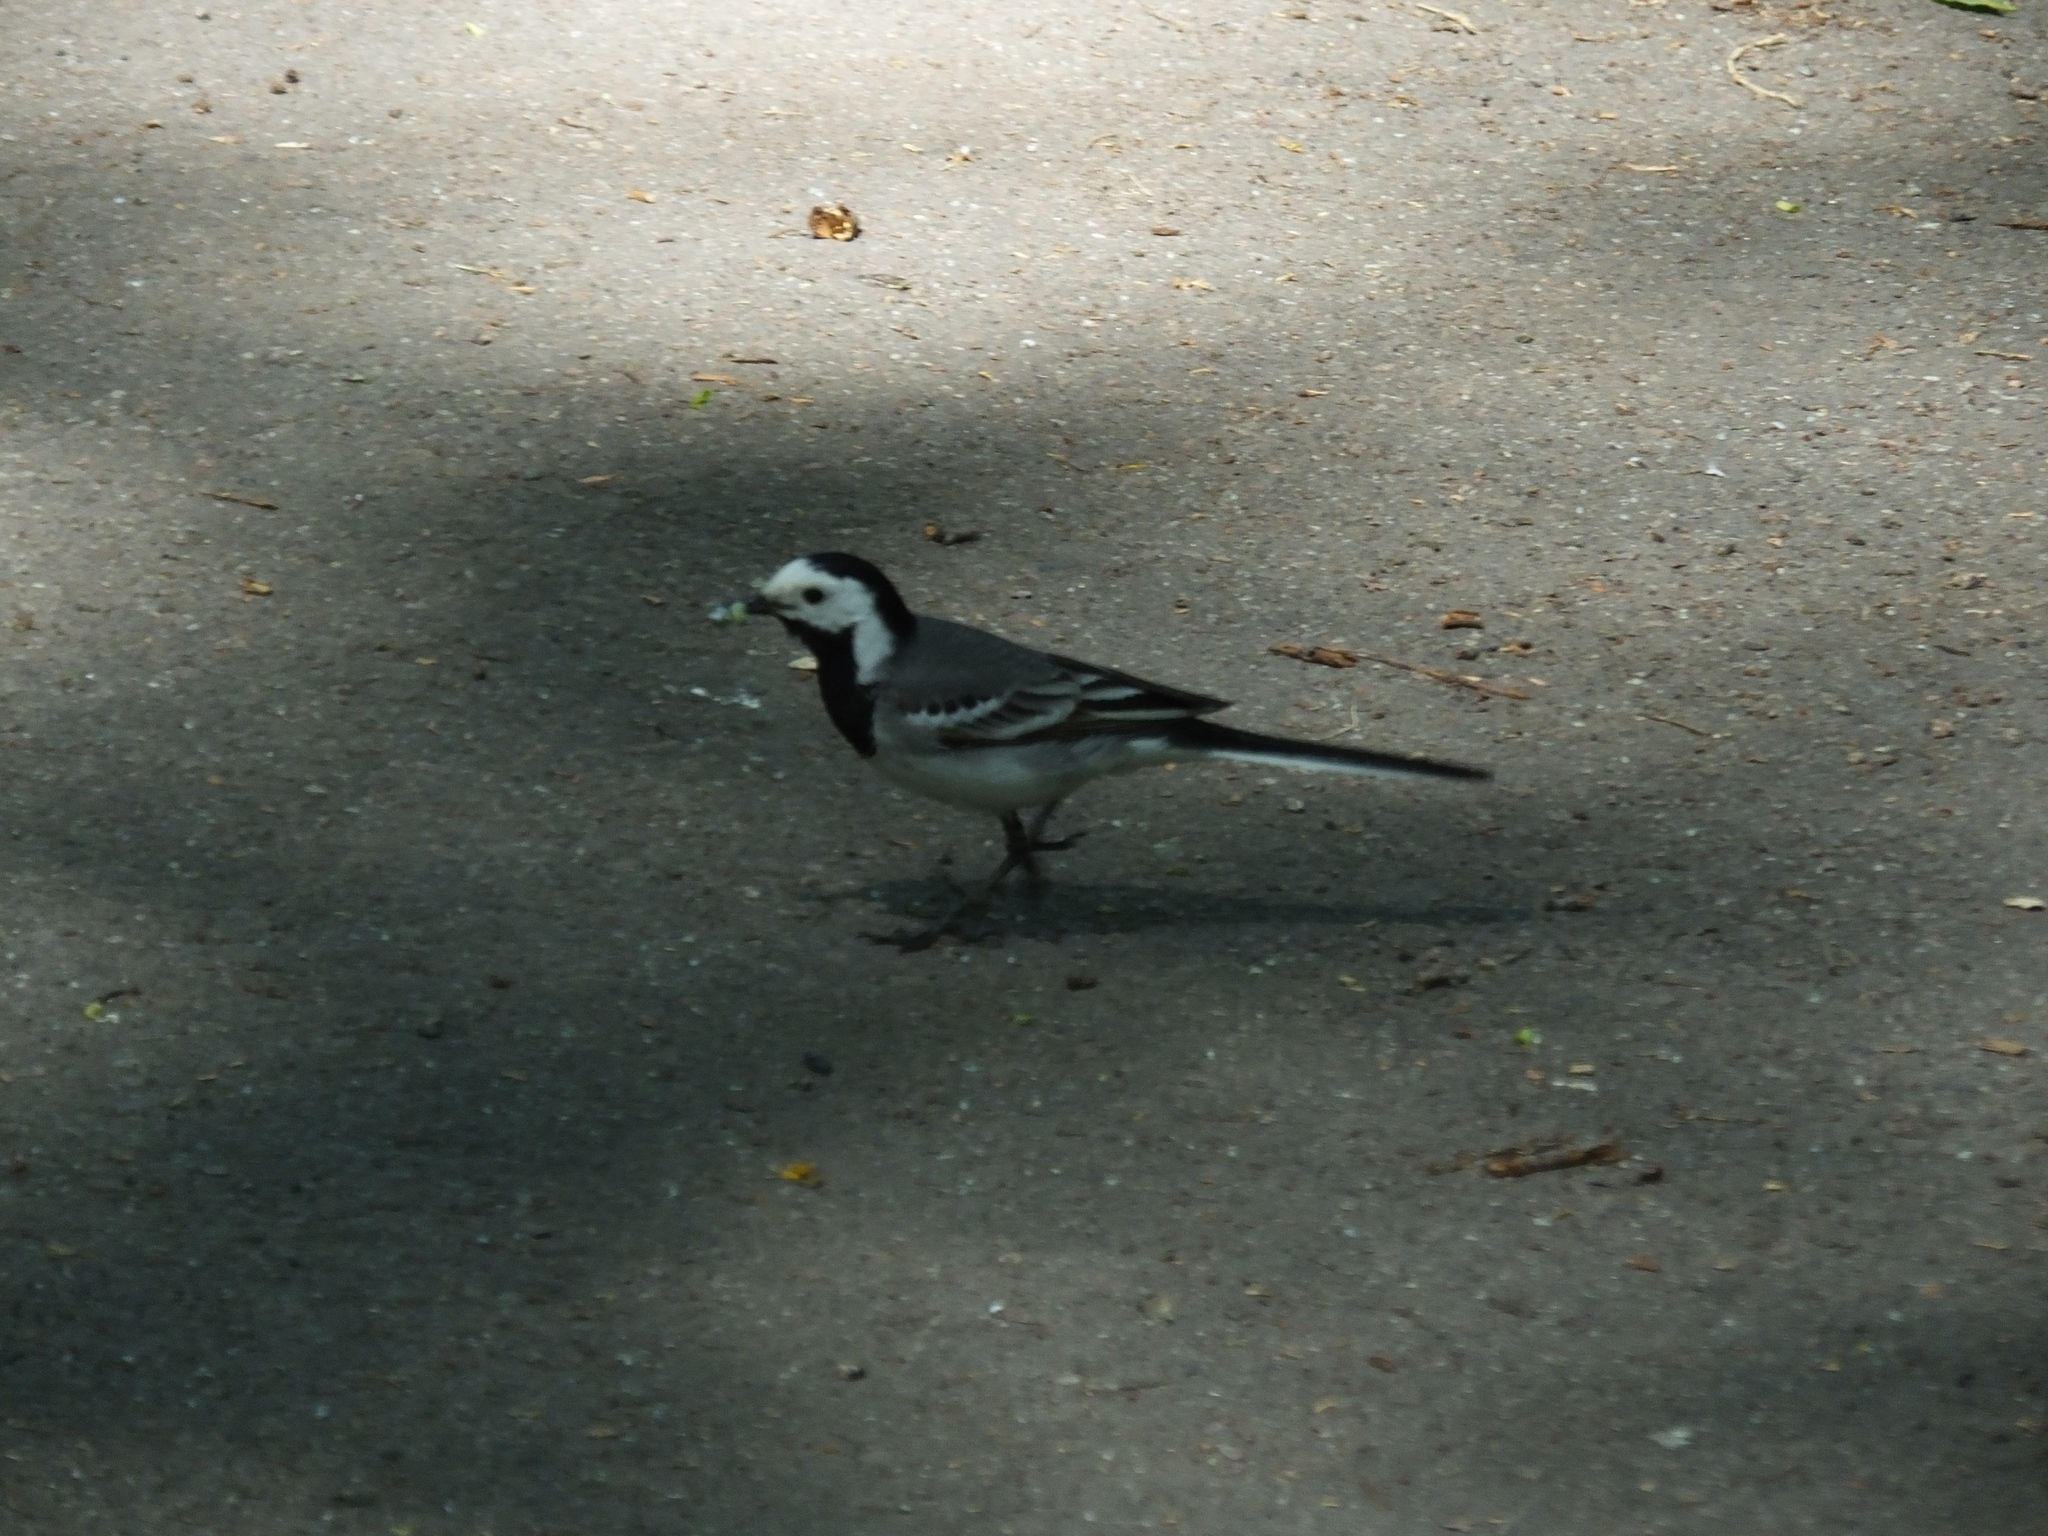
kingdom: Animalia
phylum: Chordata
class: Aves
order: Passeriformes
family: Motacillidae
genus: Motacilla
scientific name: Motacilla alba
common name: White wagtail
